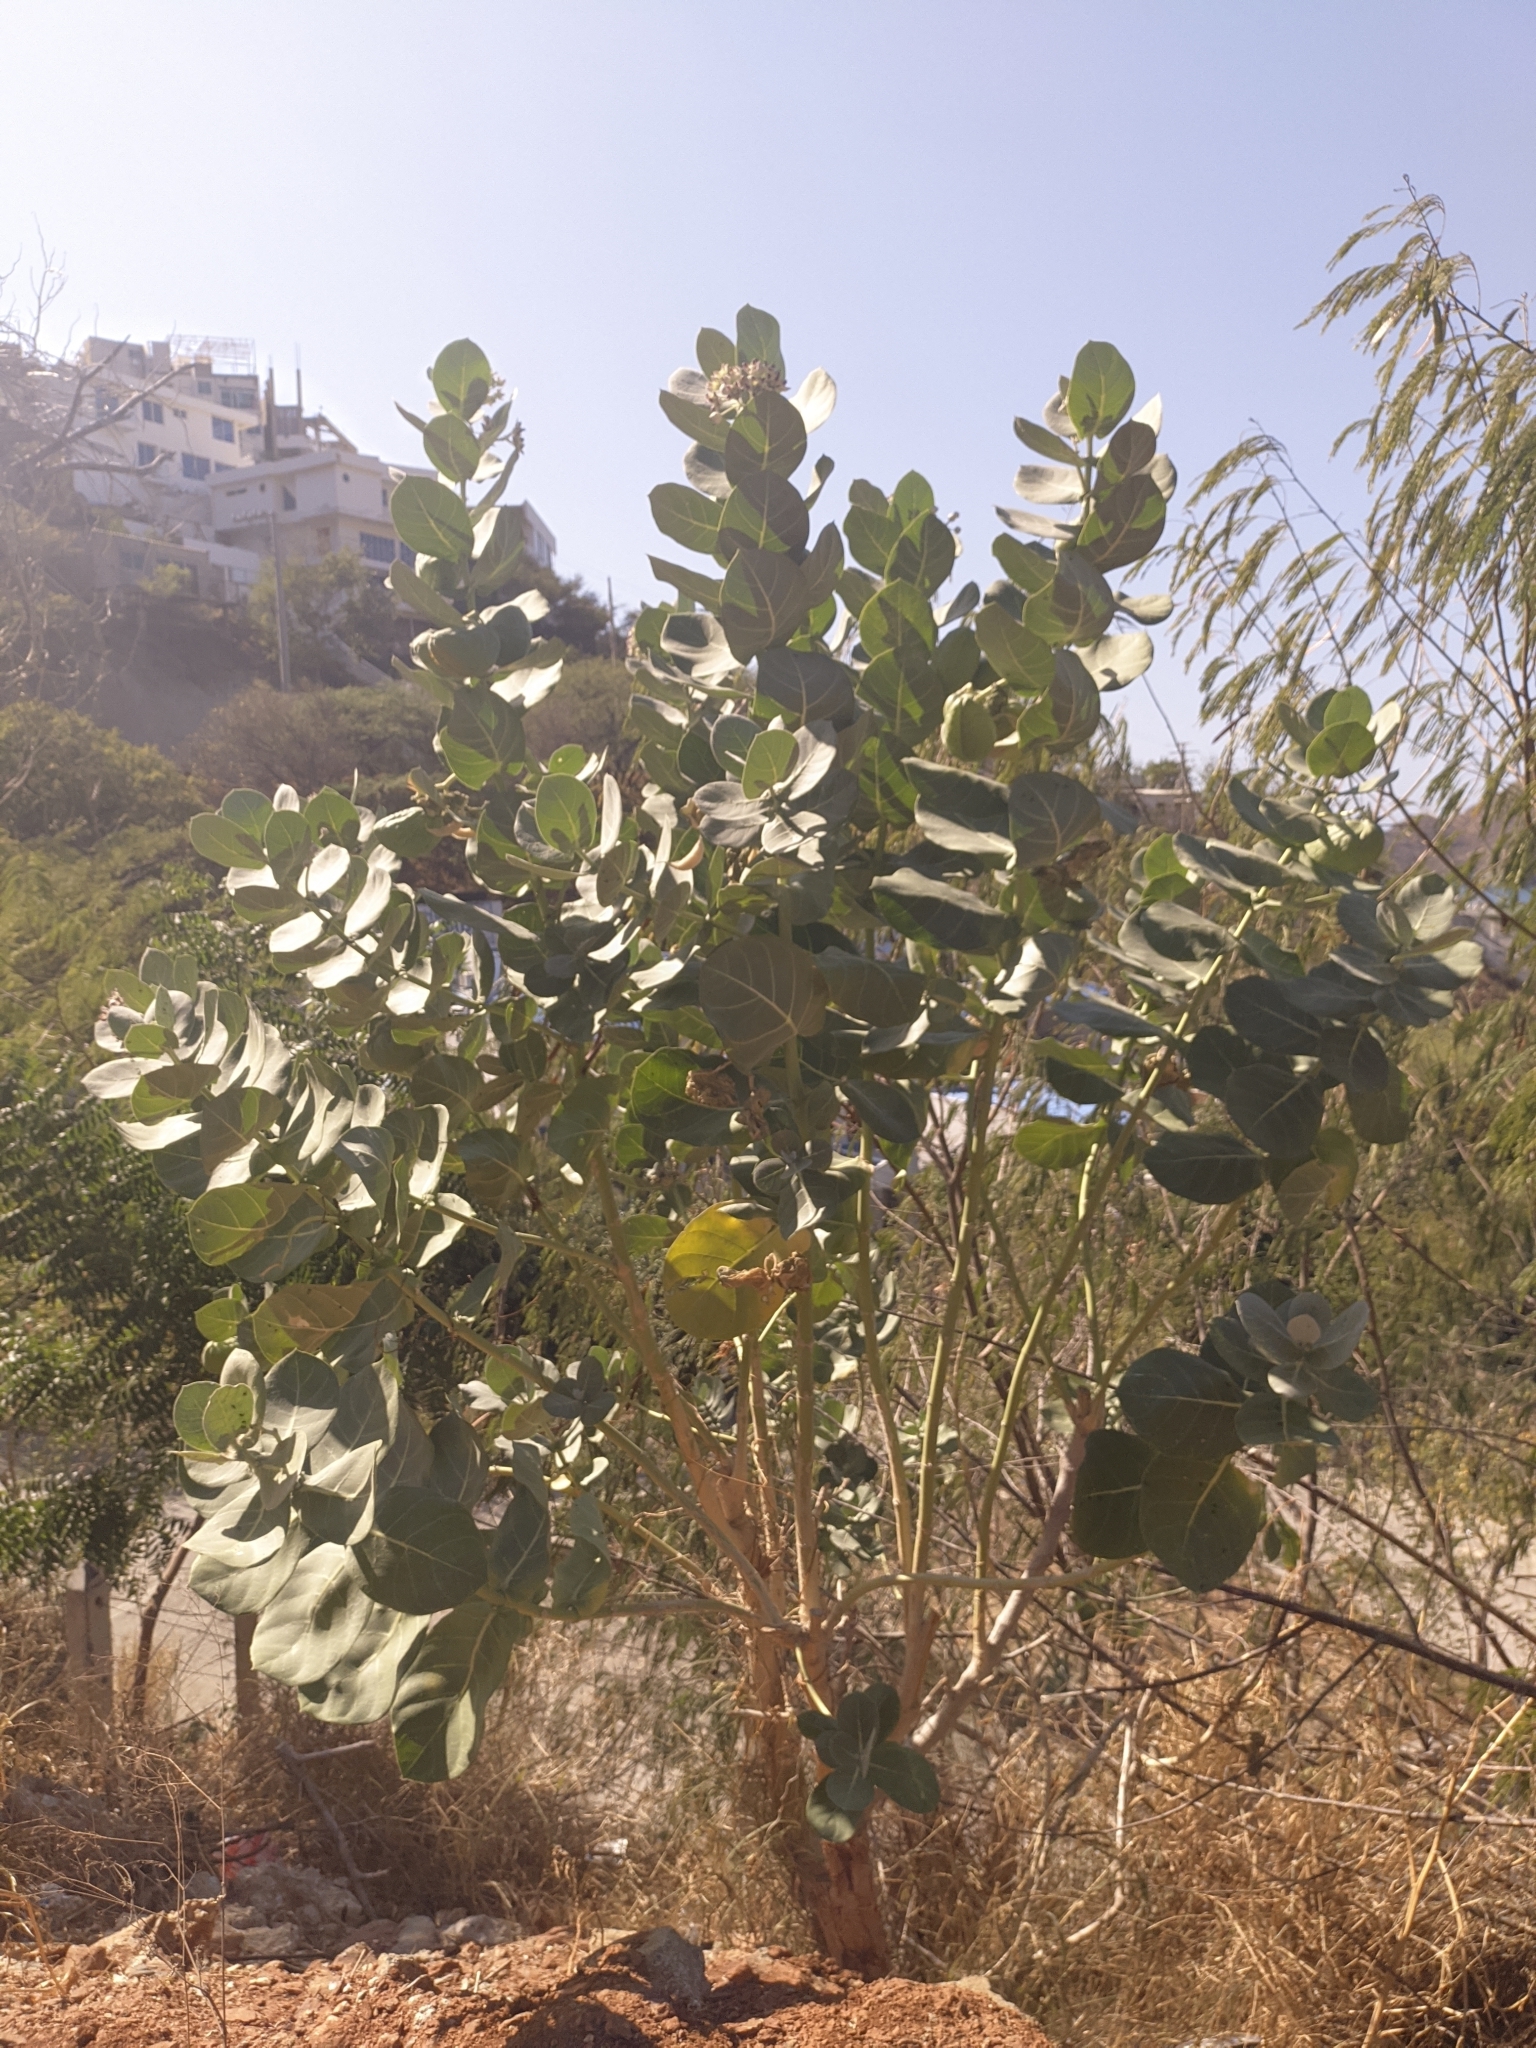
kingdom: Plantae
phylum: Tracheophyta
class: Magnoliopsida
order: Gentianales
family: Apocynaceae
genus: Calotropis
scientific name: Calotropis procera
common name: Roostertree
